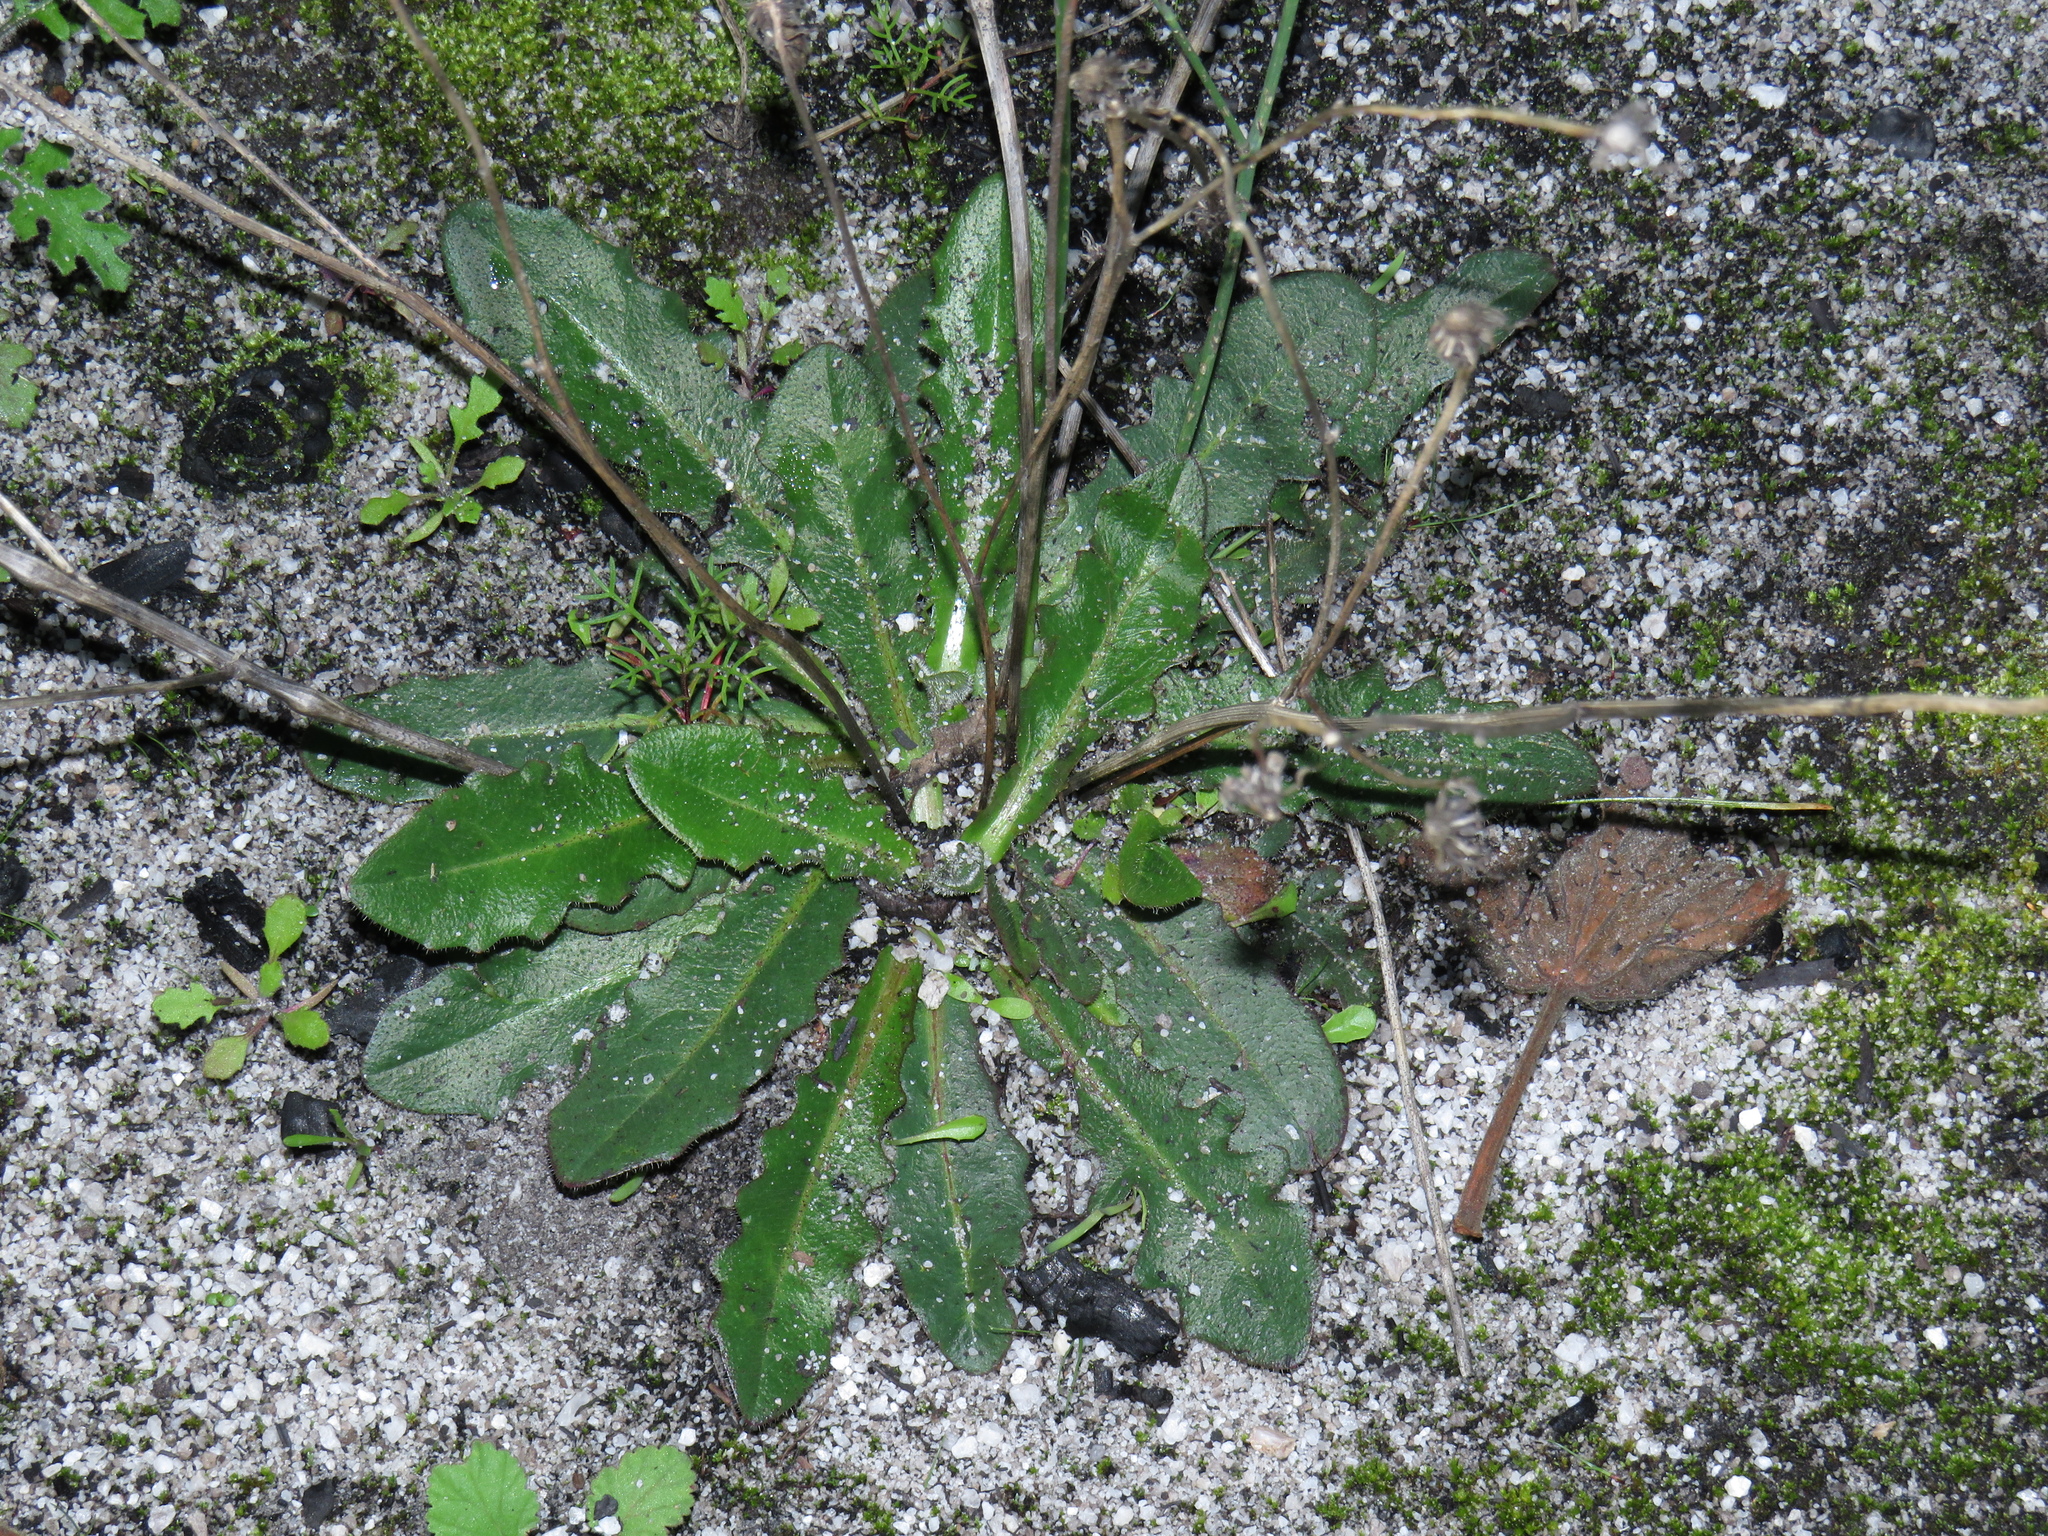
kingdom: Plantae
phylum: Tracheophyta
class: Magnoliopsida
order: Asterales
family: Asteraceae
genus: Hypochaeris
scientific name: Hypochaeris radicata
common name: Flatweed
